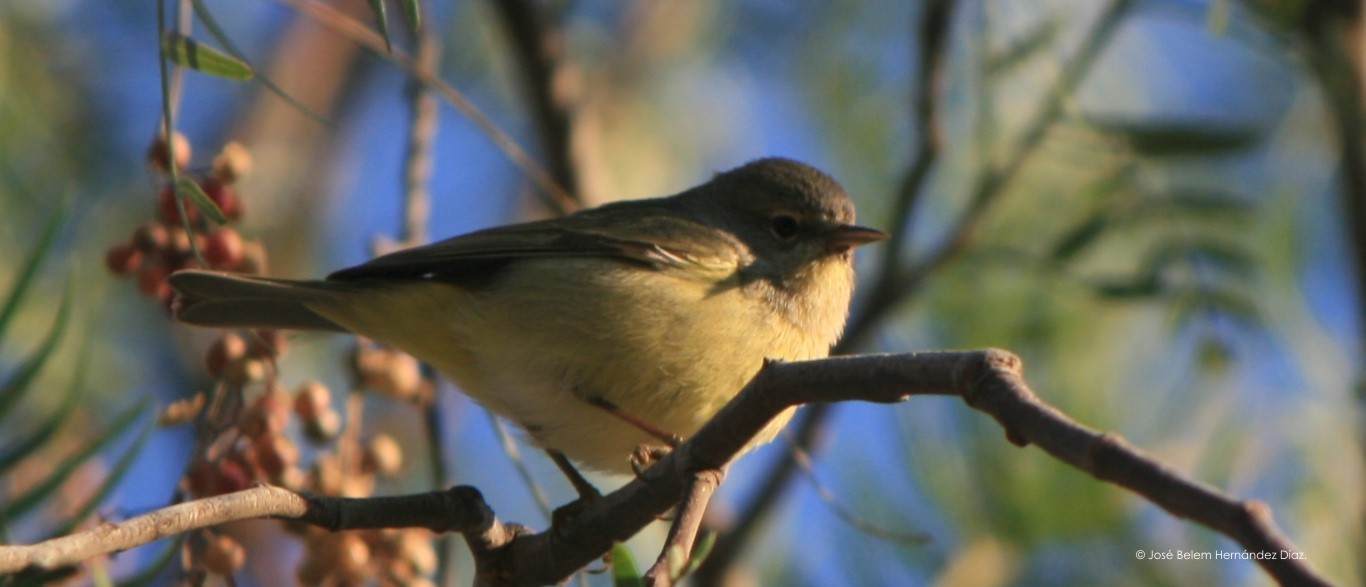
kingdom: Animalia
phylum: Chordata
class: Aves
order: Passeriformes
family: Parulidae
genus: Leiothlypis
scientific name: Leiothlypis celata
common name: Orange-crowned warbler
